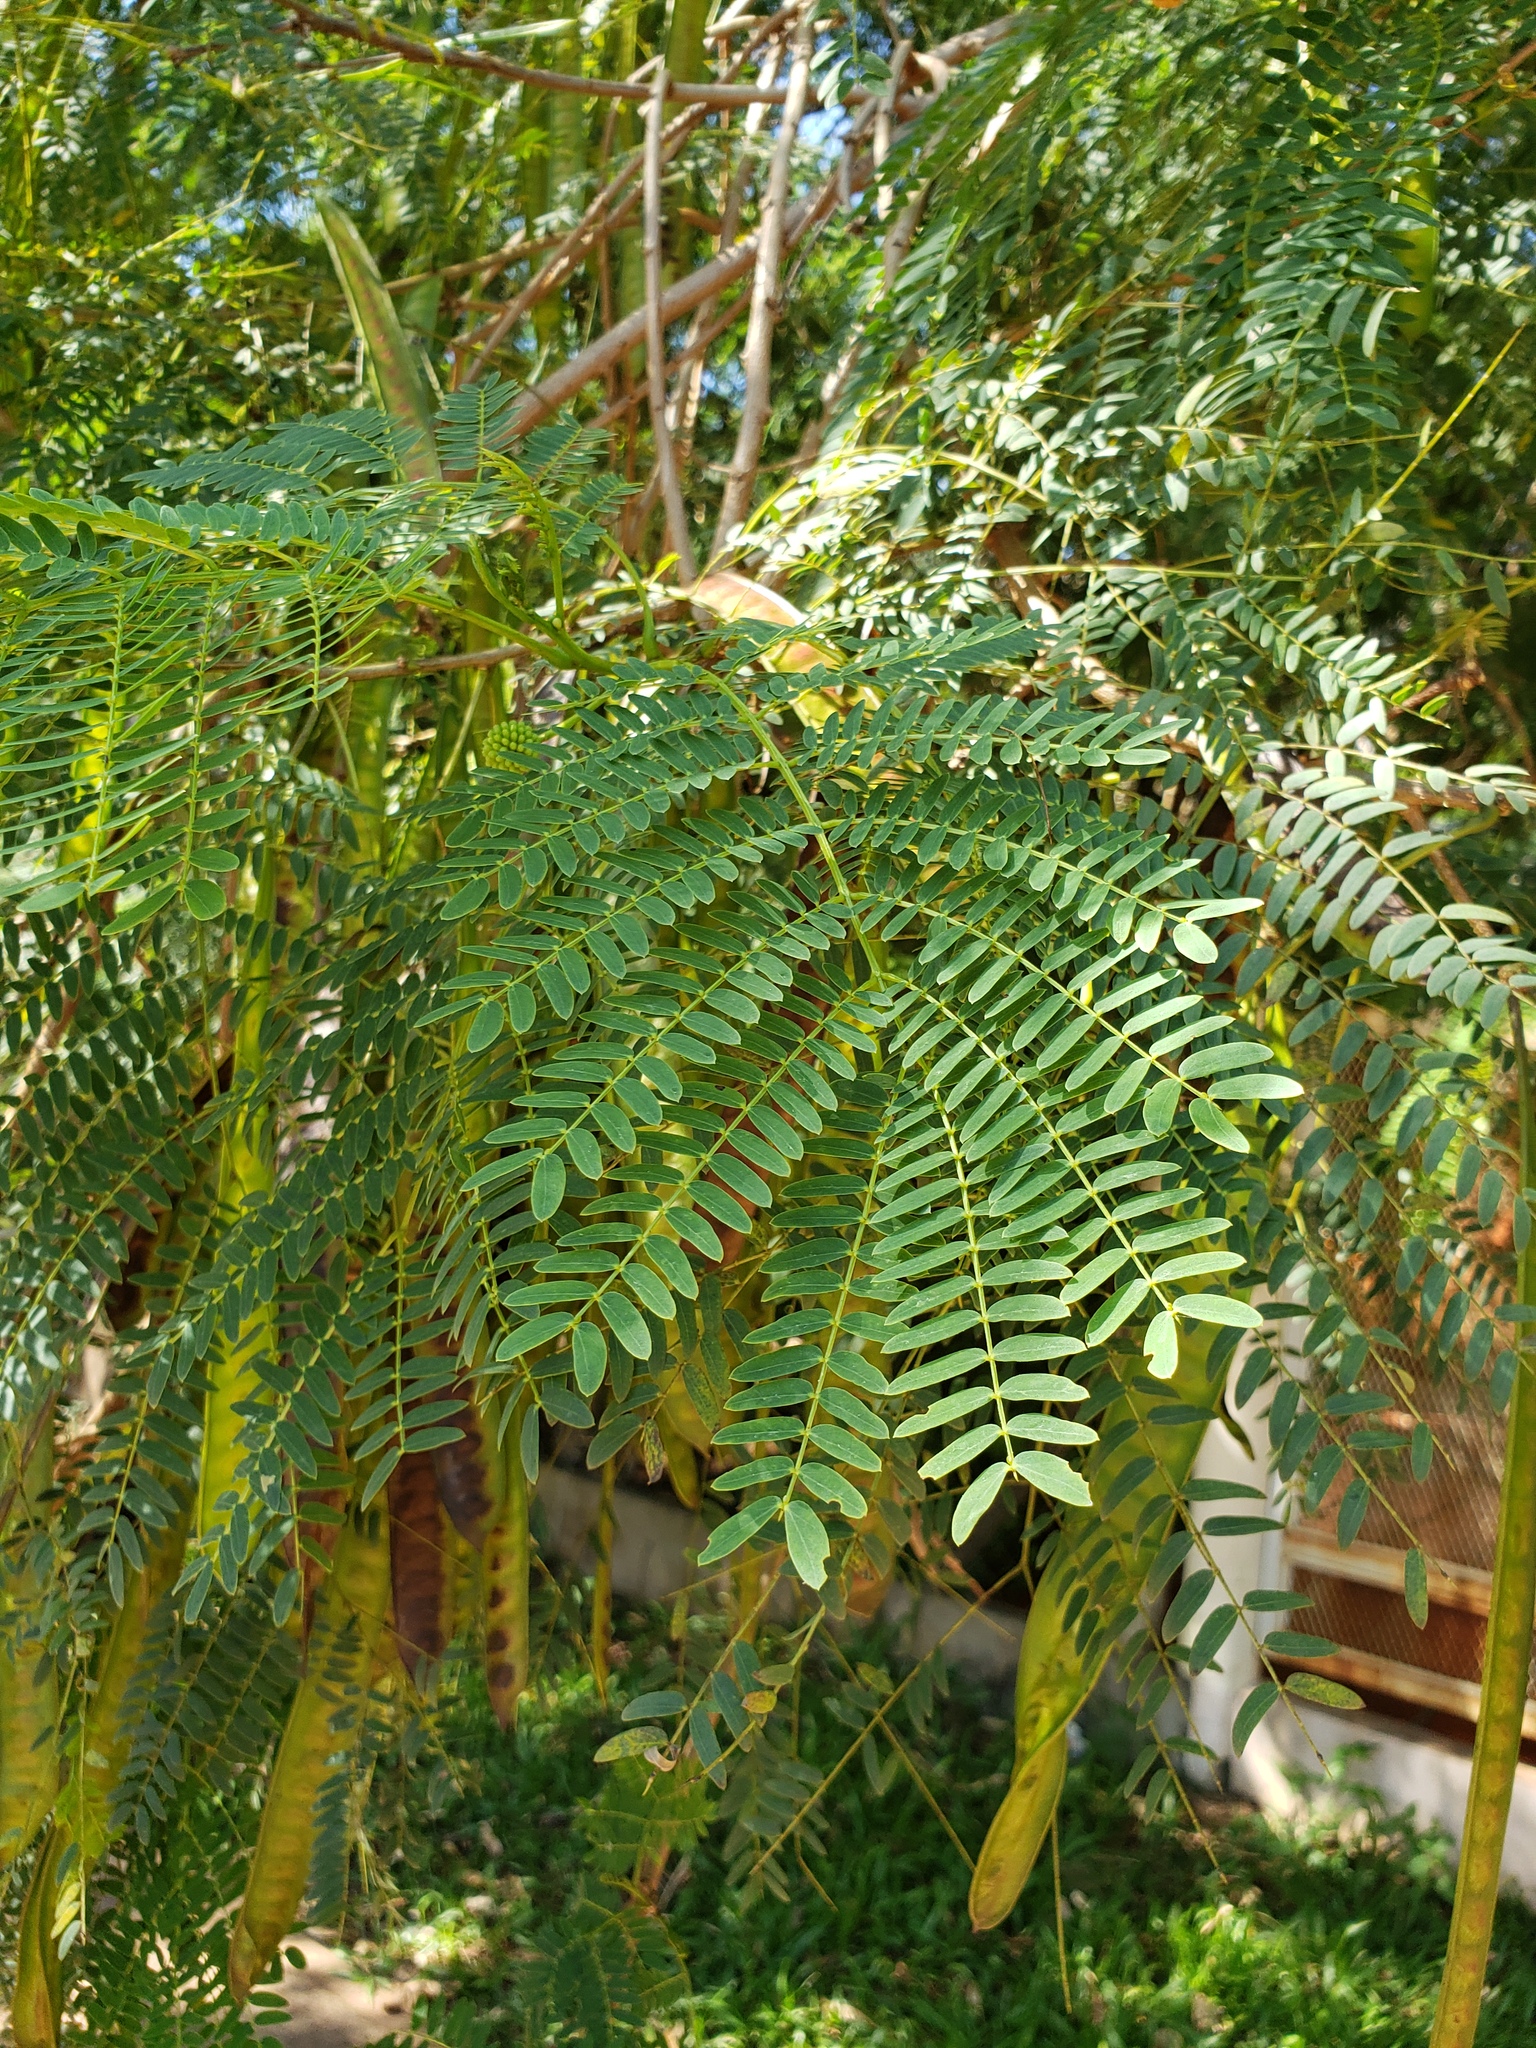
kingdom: Plantae
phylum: Tracheophyta
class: Magnoliopsida
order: Fabales
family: Fabaceae
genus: Leucaena
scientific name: Leucaena leucocephala
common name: White leadtree
